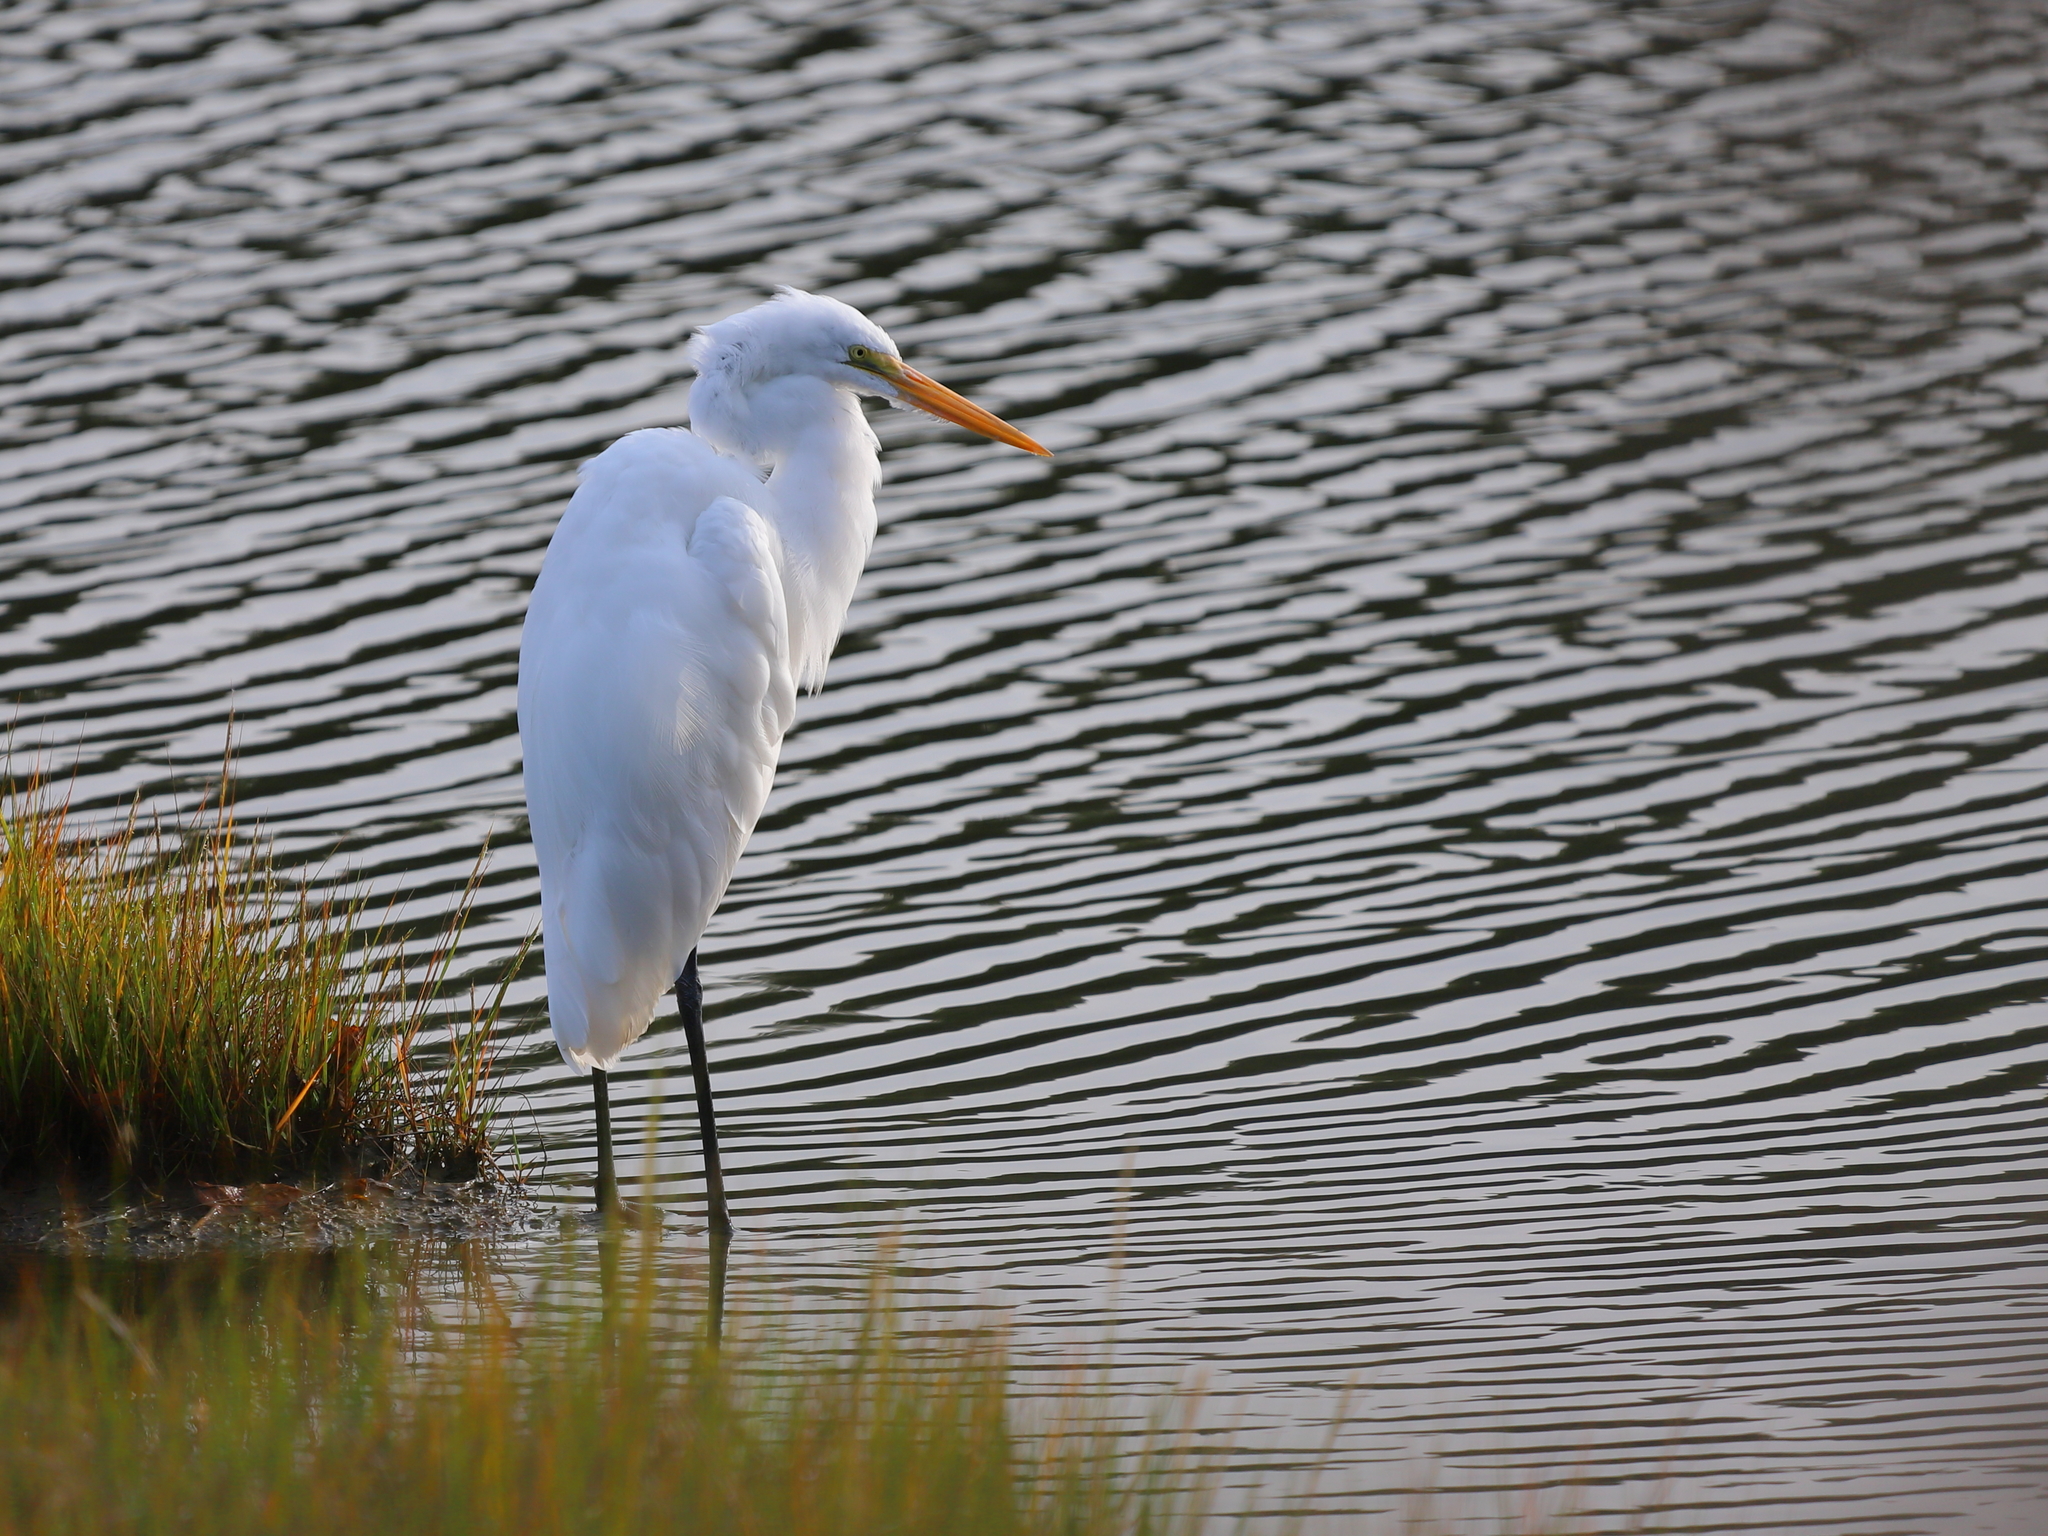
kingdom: Animalia
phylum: Chordata
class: Aves
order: Pelecaniformes
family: Ardeidae
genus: Ardea
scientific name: Ardea alba
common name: Great egret
